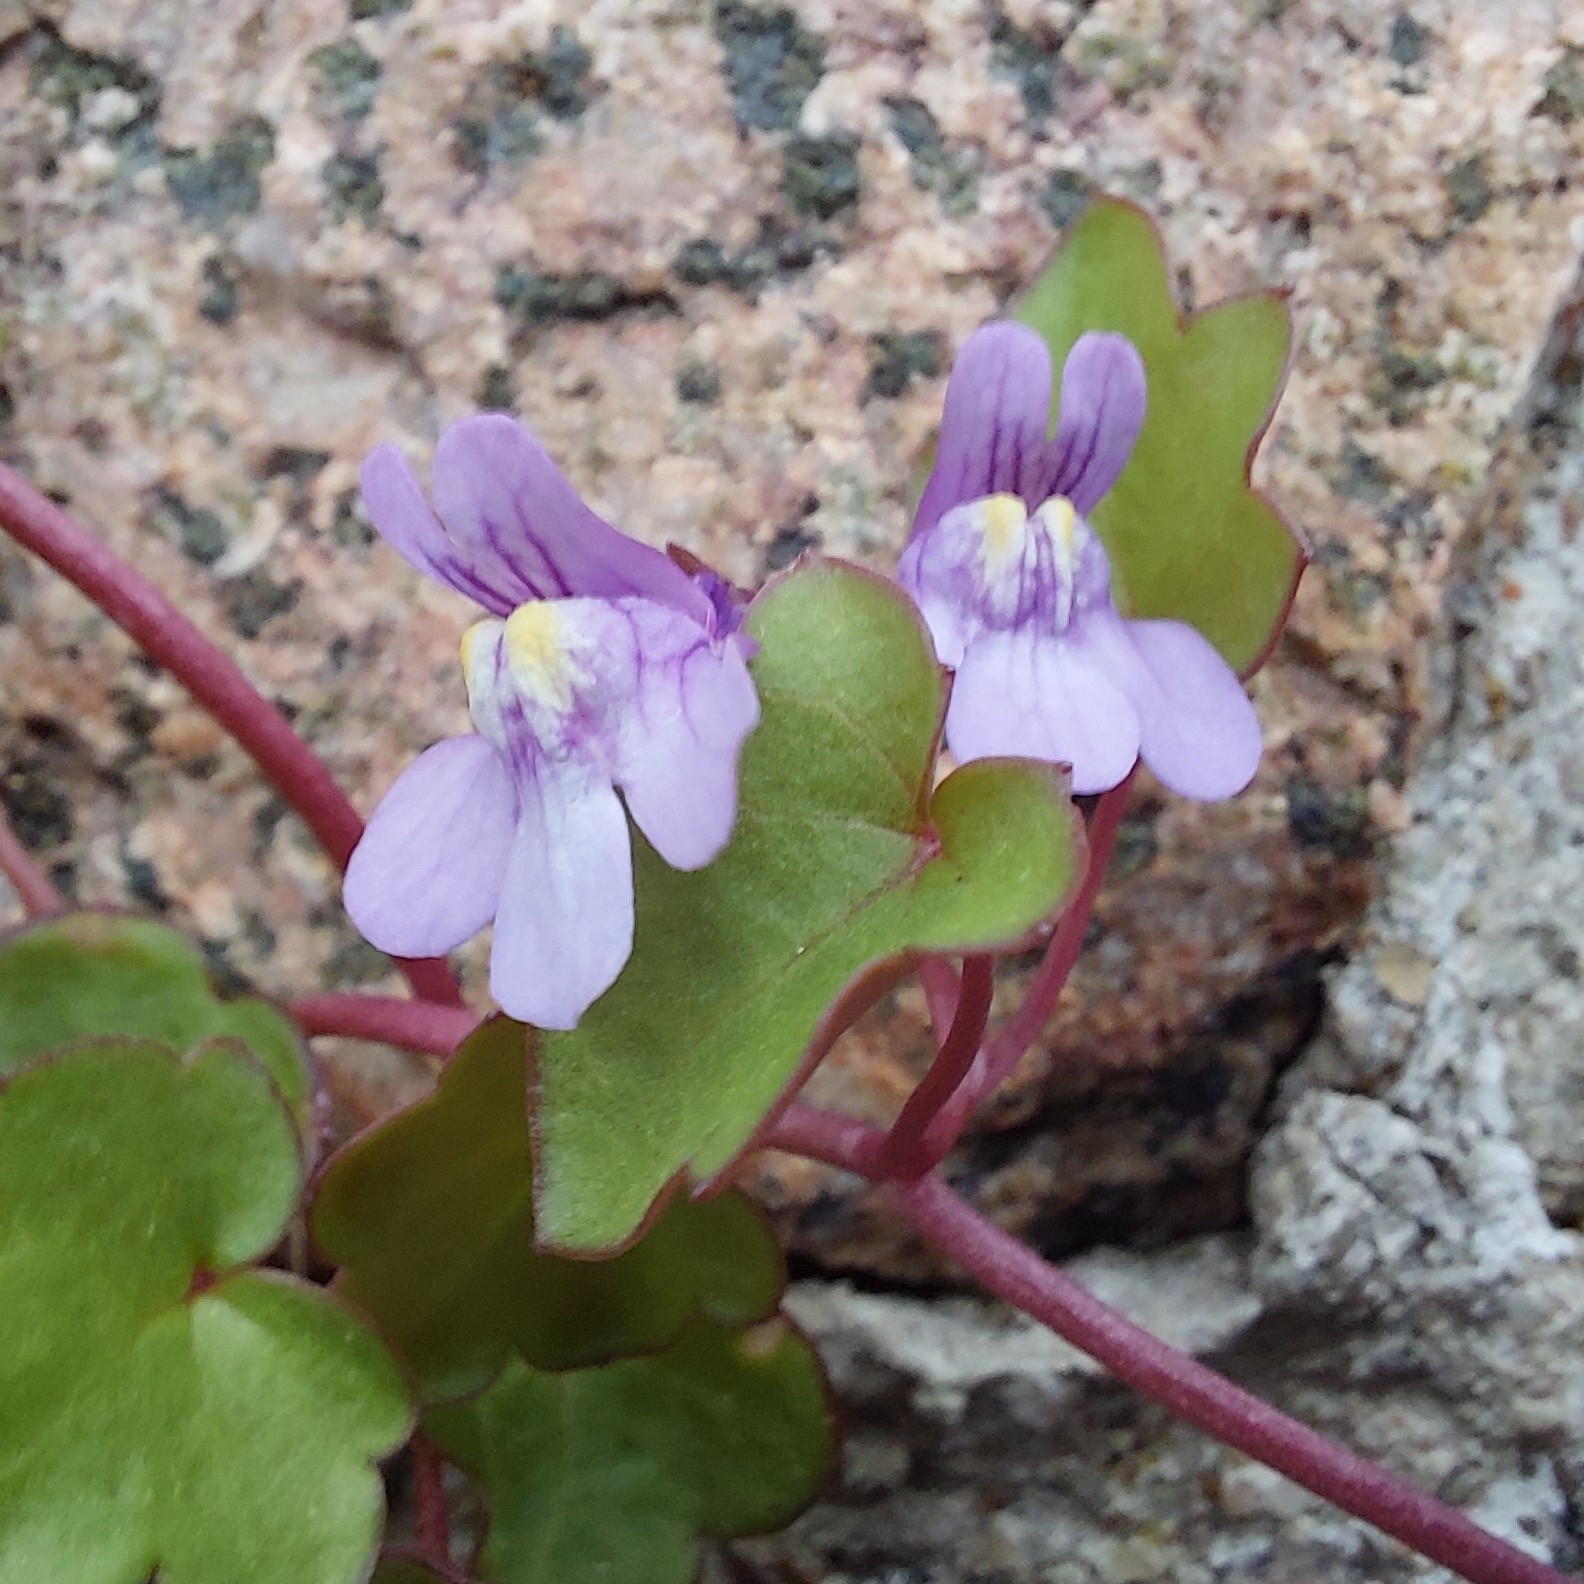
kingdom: Plantae
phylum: Tracheophyta
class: Magnoliopsida
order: Lamiales
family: Plantaginaceae
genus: Cymbalaria
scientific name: Cymbalaria muralis
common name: Ivy-leaved toadflax
